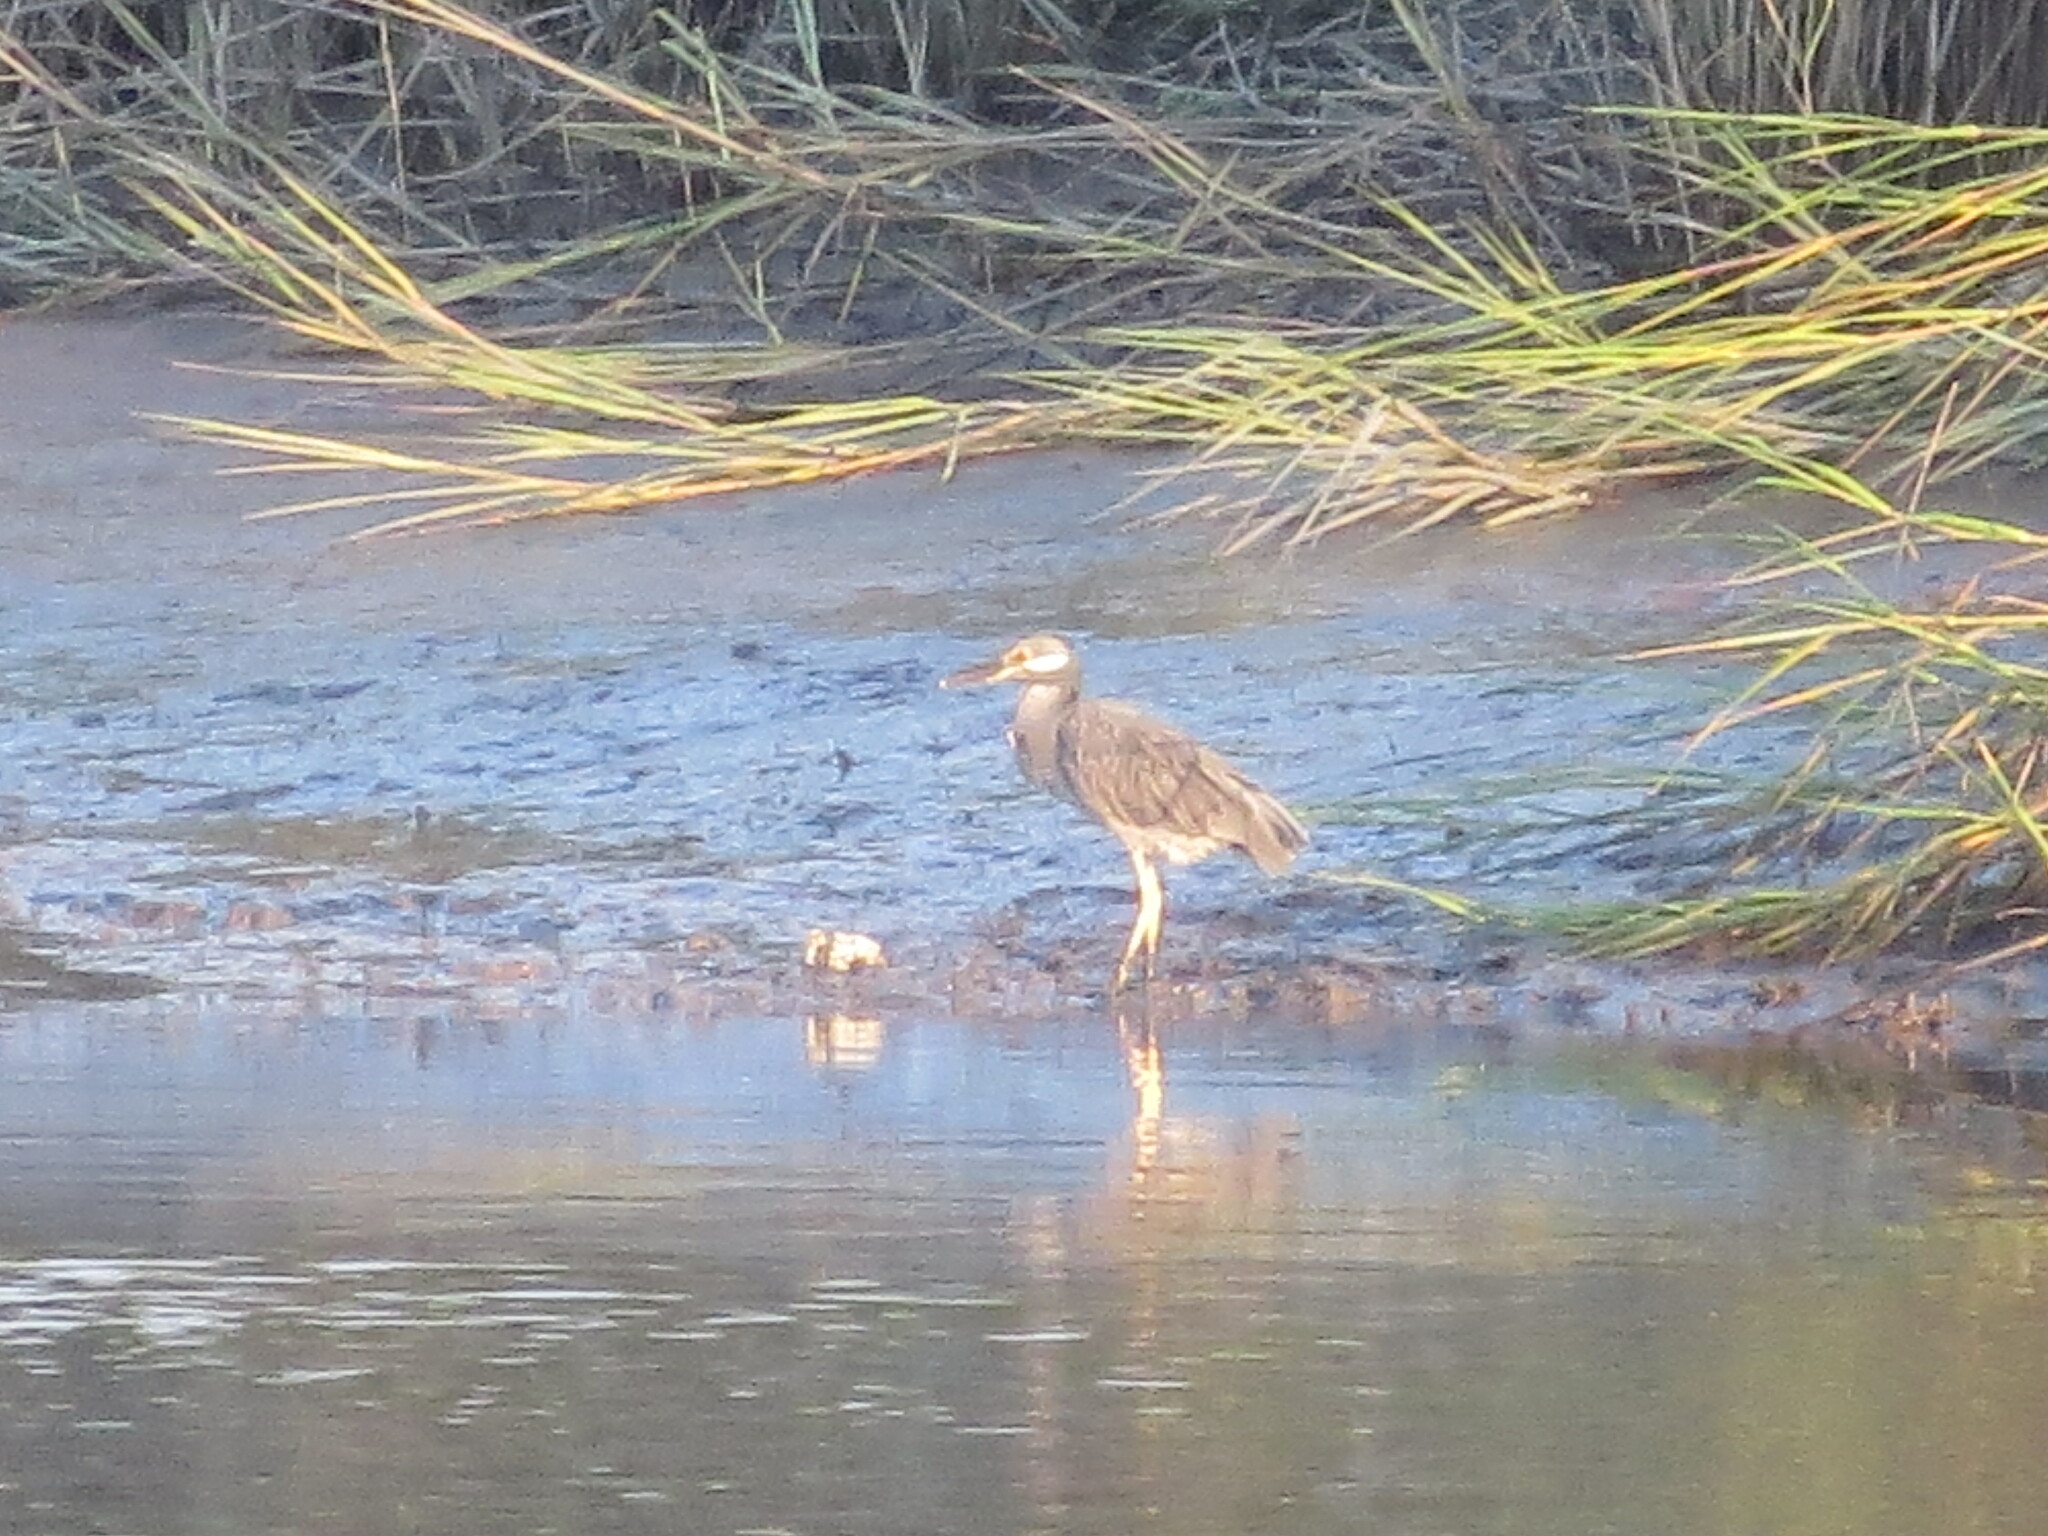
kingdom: Animalia
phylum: Chordata
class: Aves
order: Pelecaniformes
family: Ardeidae
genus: Nyctanassa
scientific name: Nyctanassa violacea
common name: Yellow-crowned night heron
